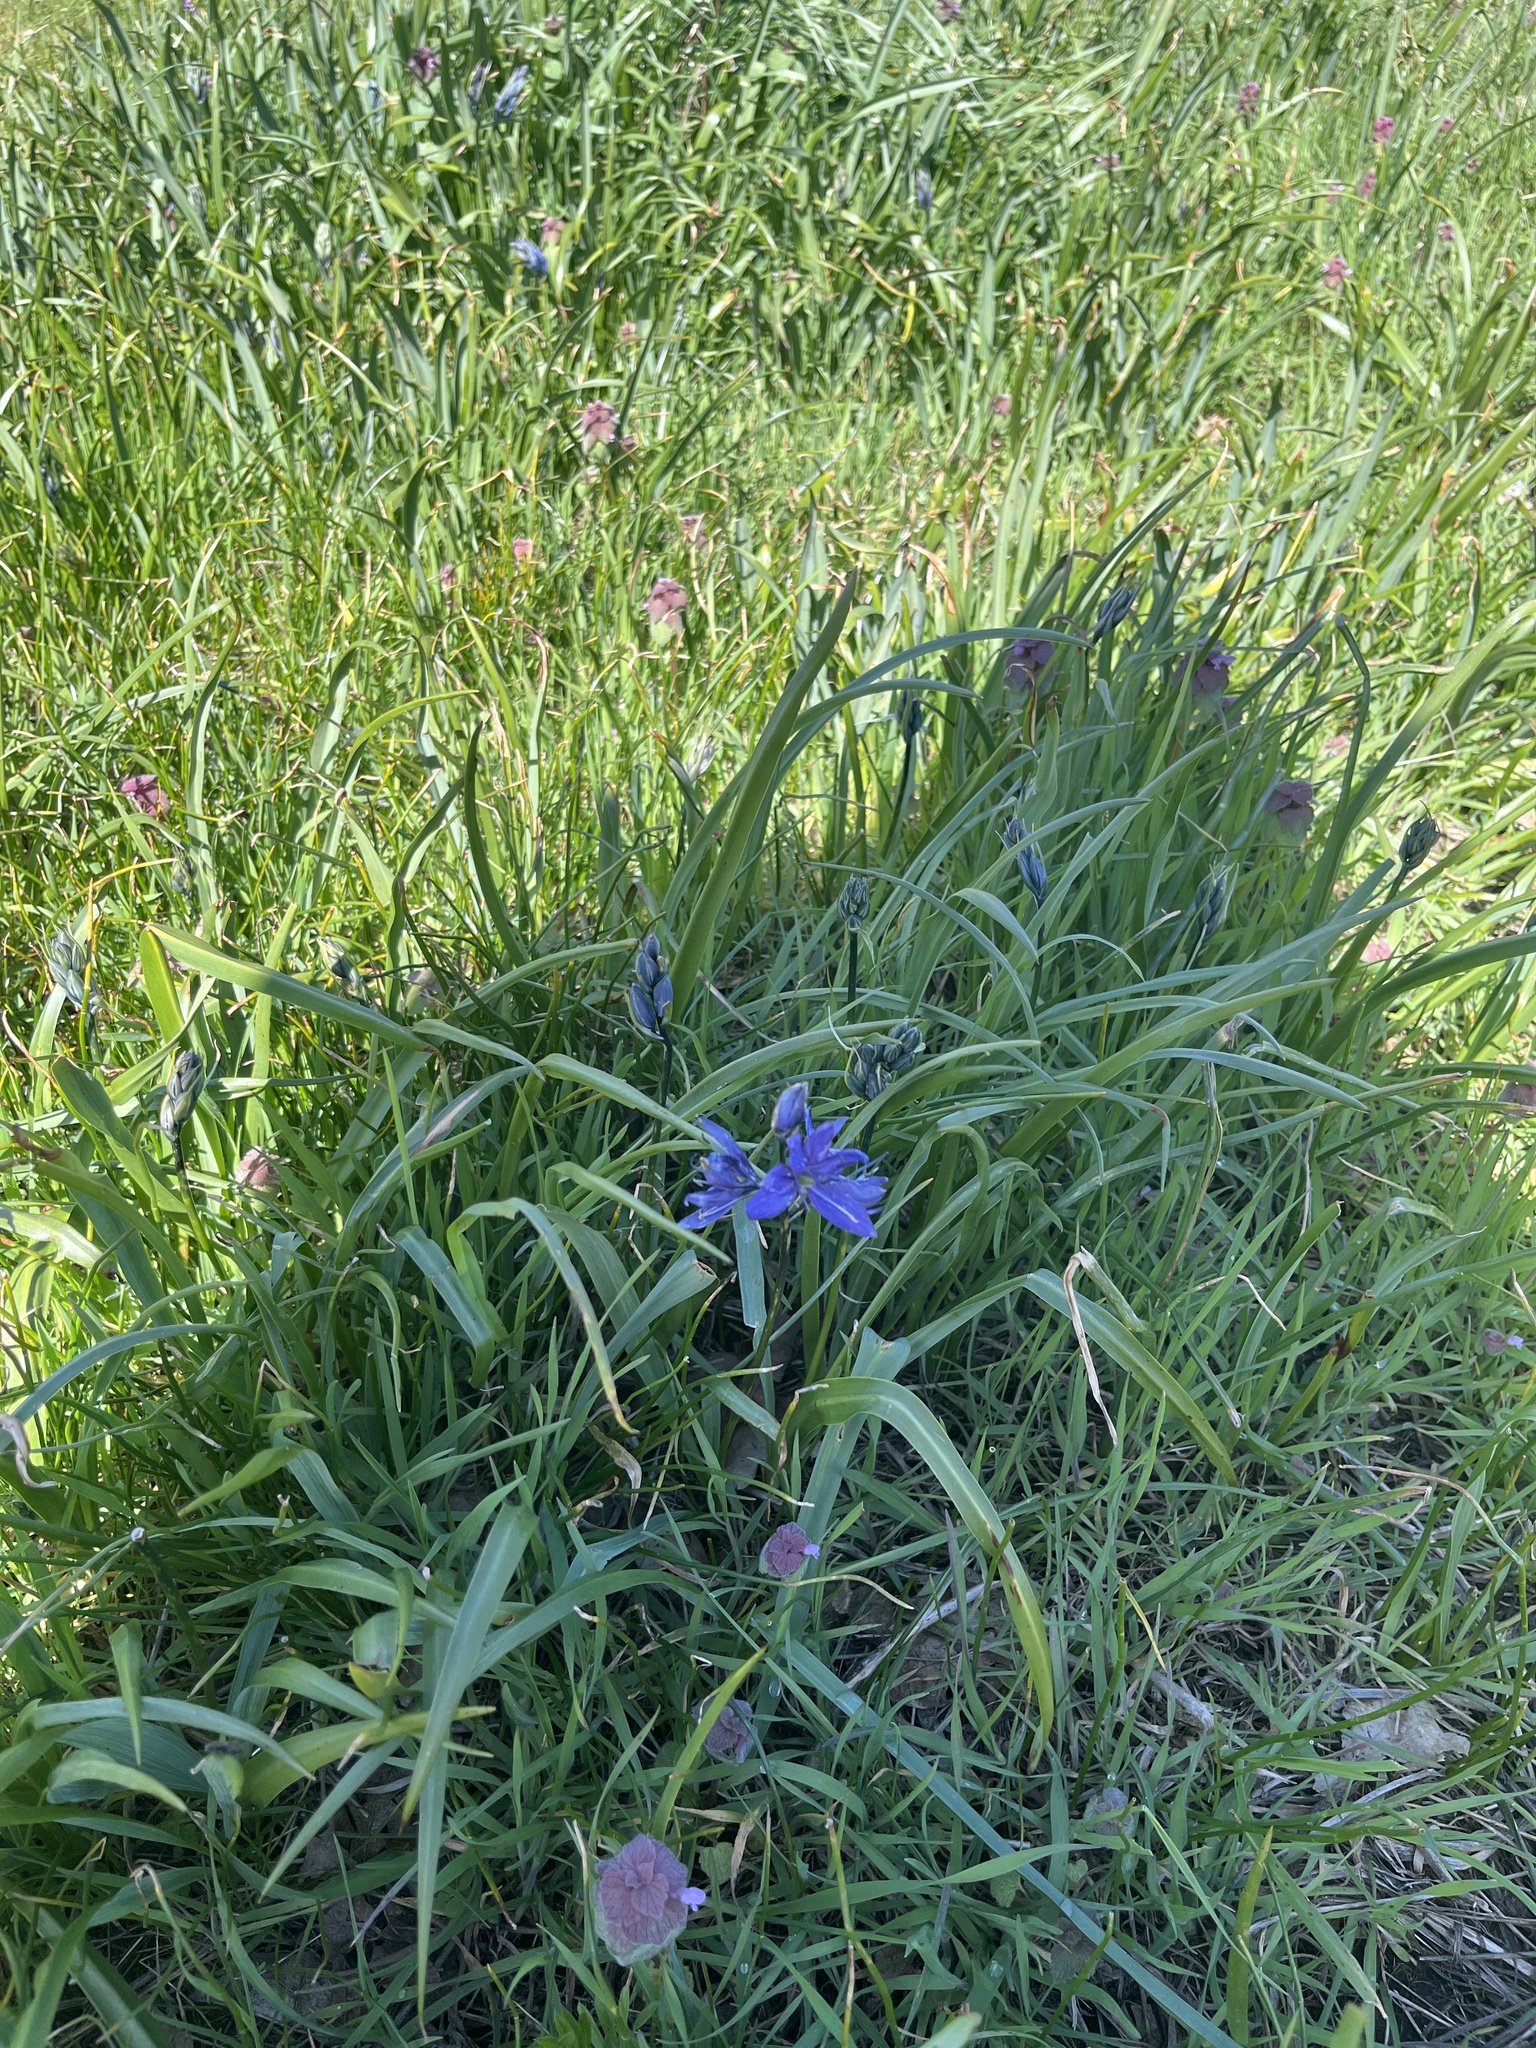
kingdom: Plantae
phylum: Tracheophyta
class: Liliopsida
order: Asparagales
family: Asparagaceae
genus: Camassia
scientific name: Camassia quamash
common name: Common camas
